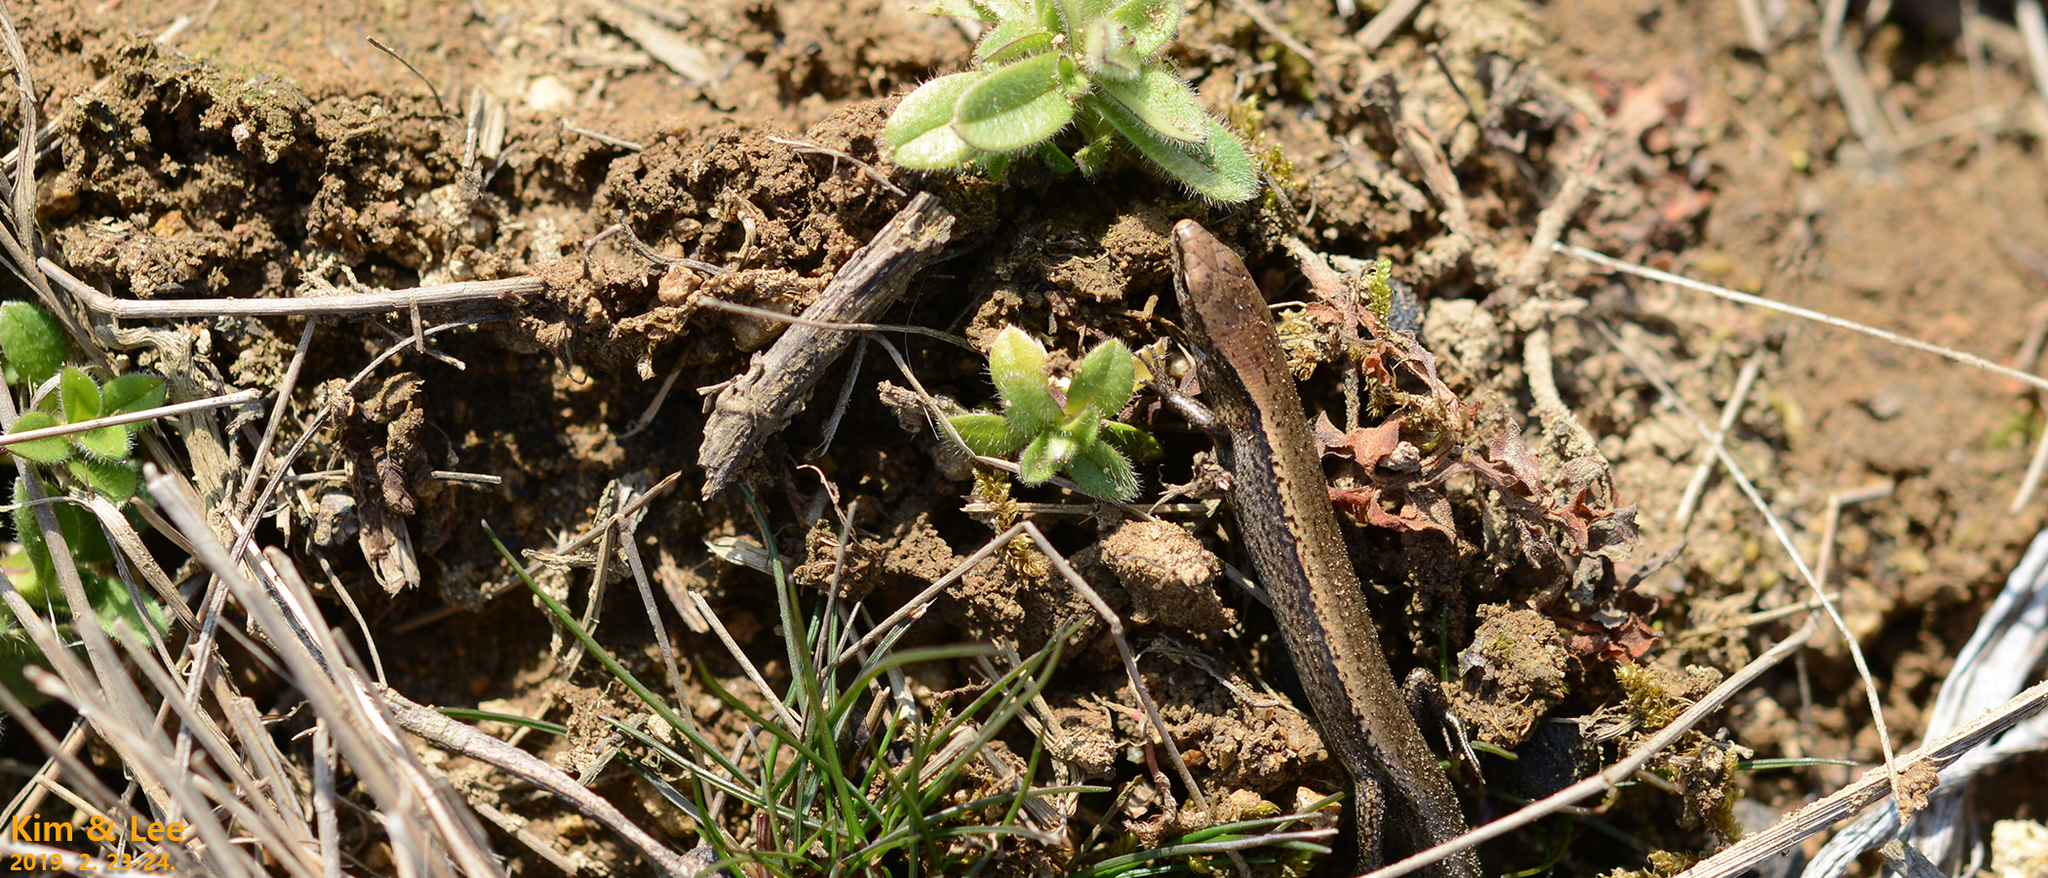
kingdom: Animalia
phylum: Chordata
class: Squamata
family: Scincidae
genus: Scincella
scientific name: Scincella vandenburghi
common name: Tsushima smooth skink
